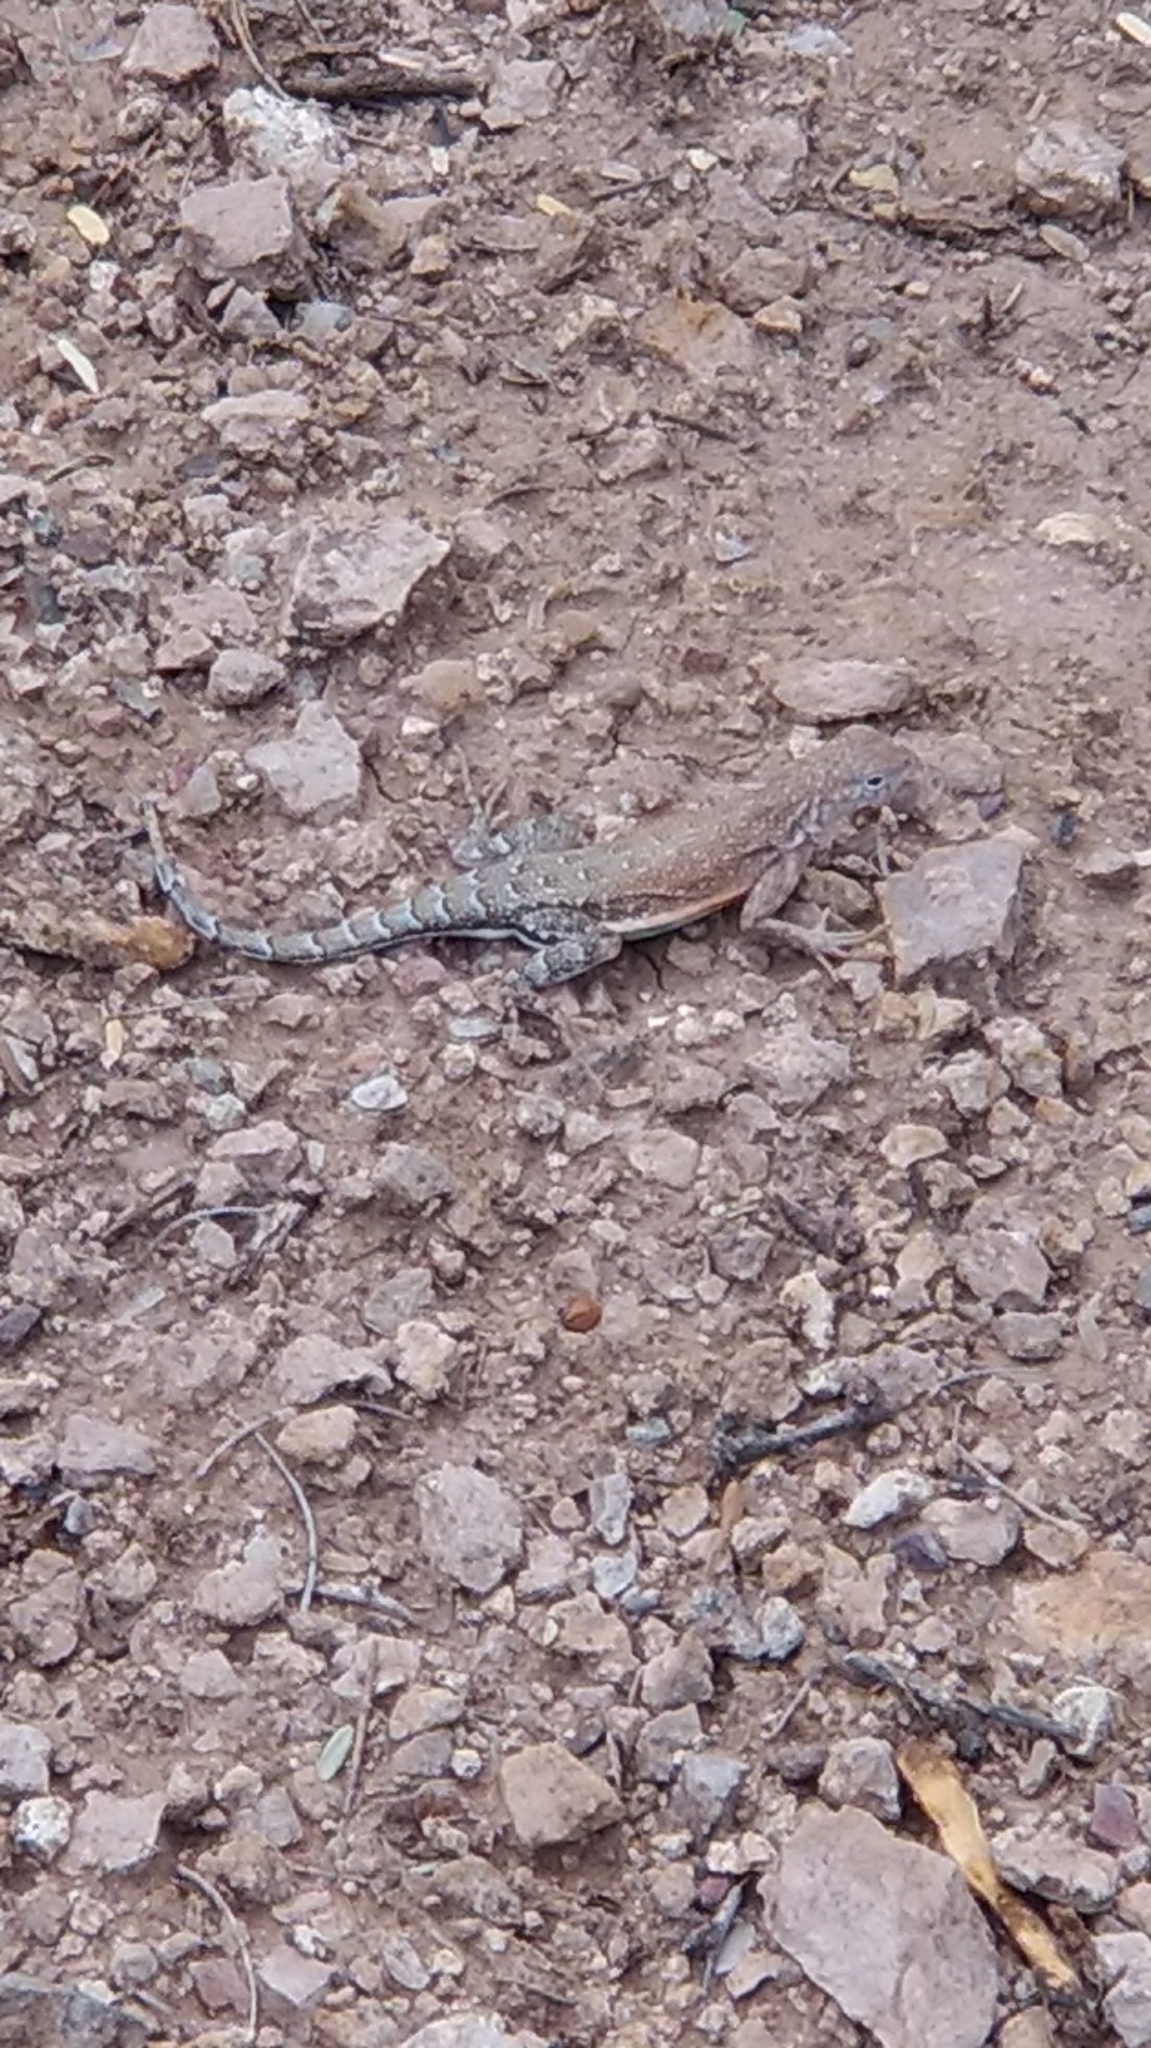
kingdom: Animalia
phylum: Chordata
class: Squamata
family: Phrynosomatidae
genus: Cophosaurus
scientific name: Cophosaurus texanus
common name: Greater earless lizard
